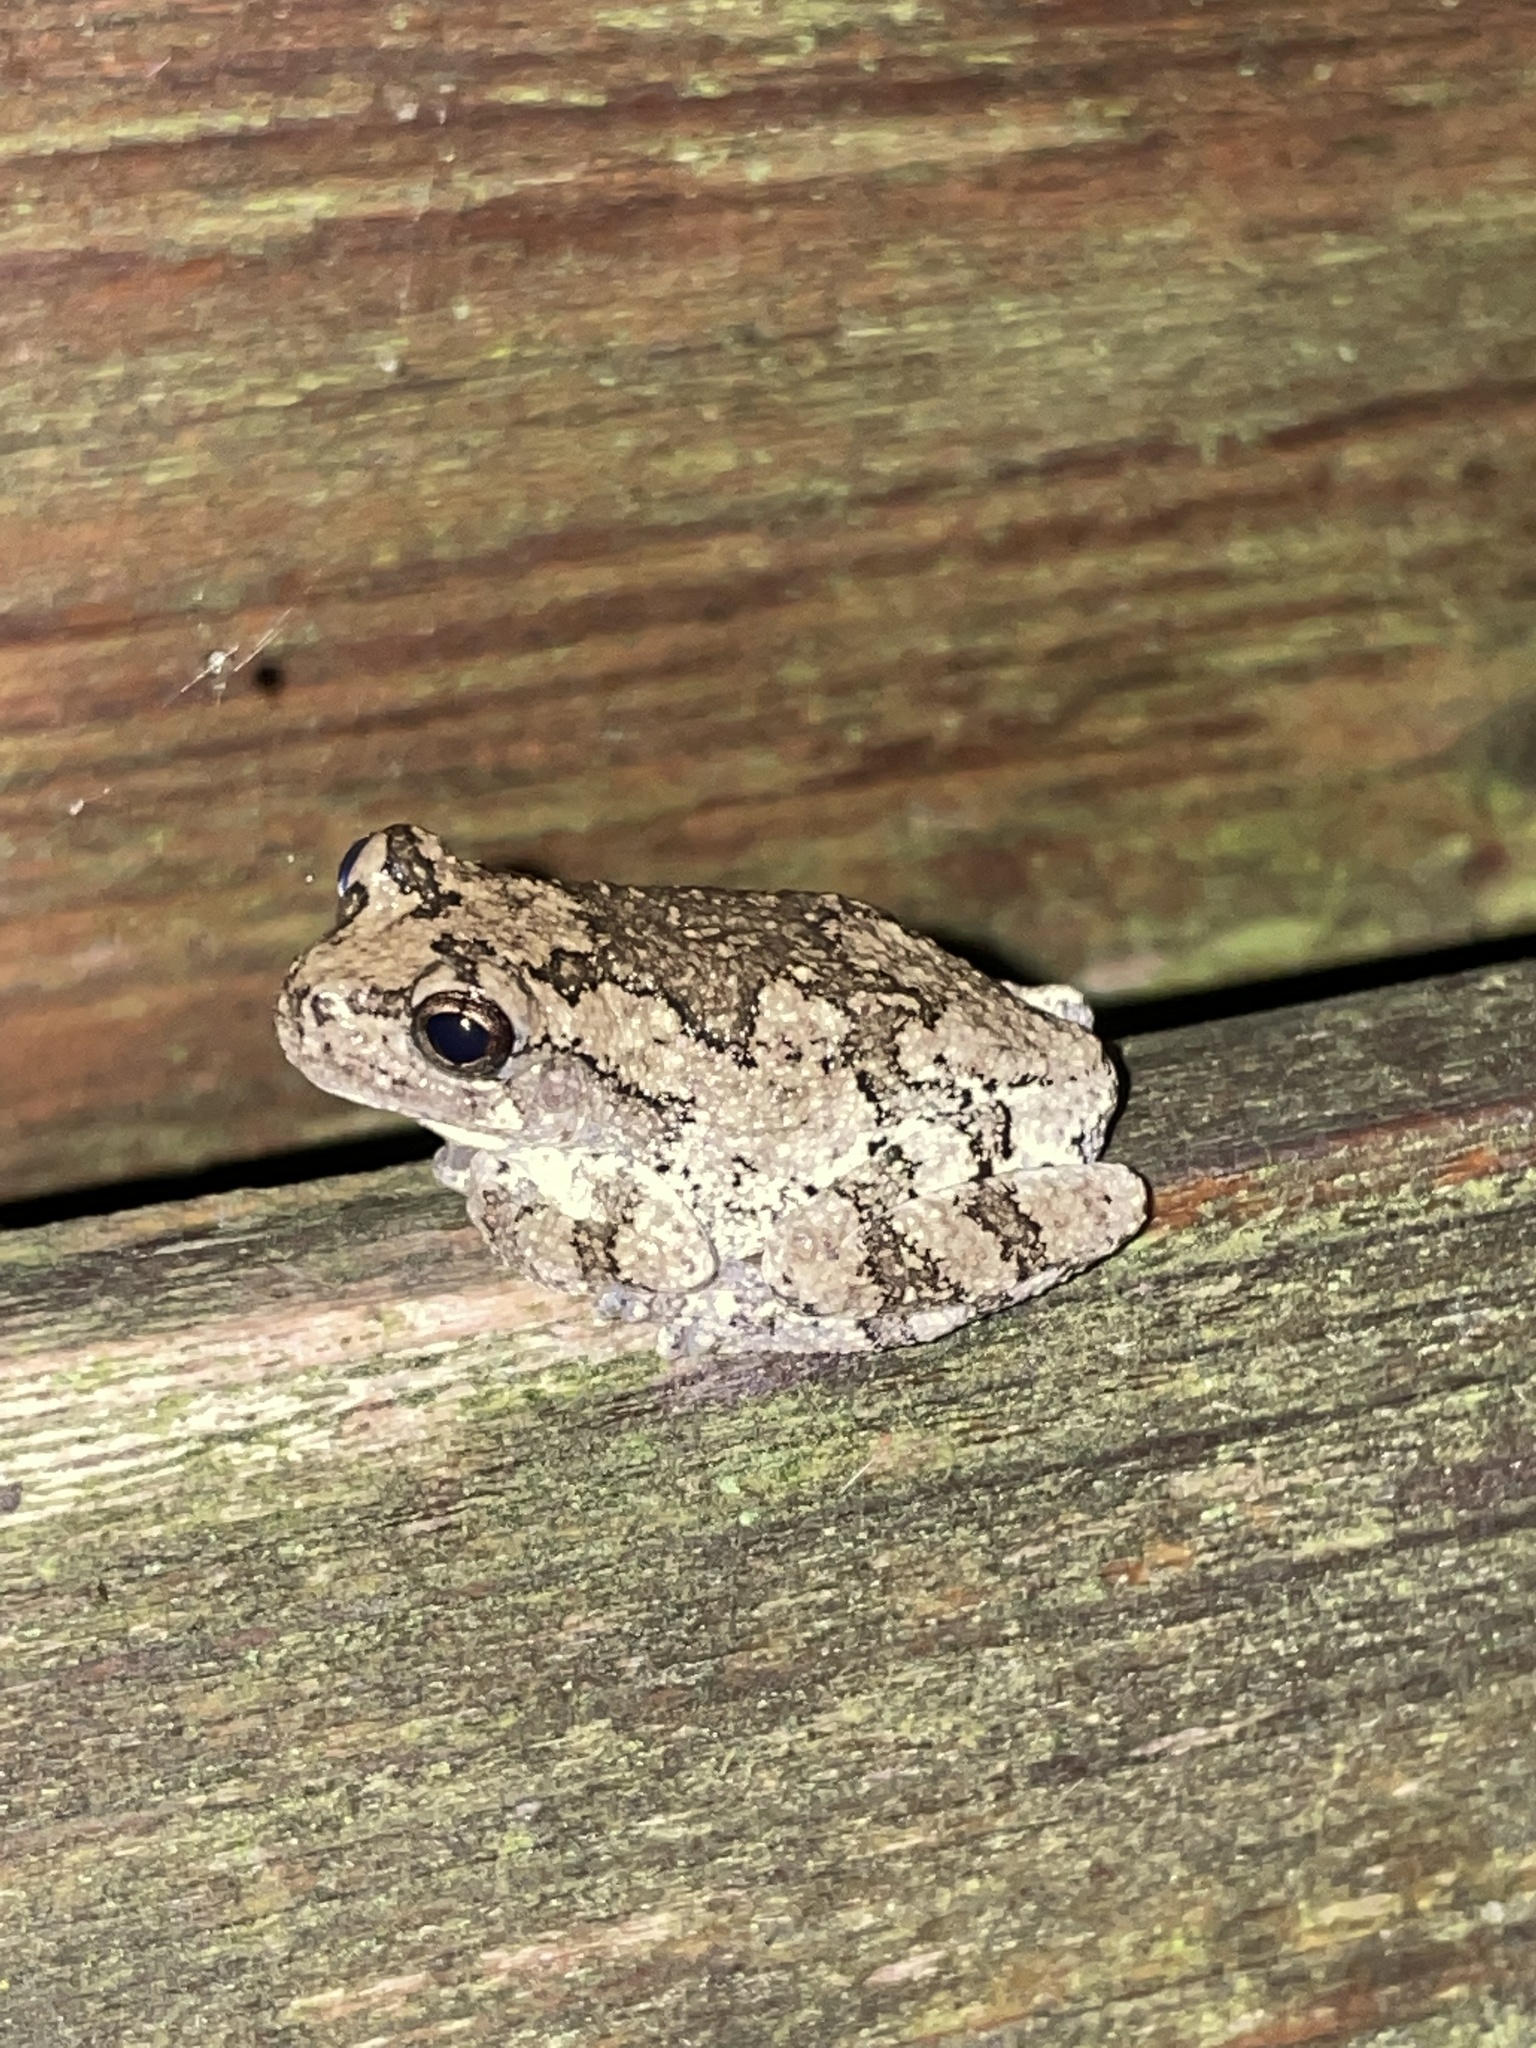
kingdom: Animalia
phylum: Chordata
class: Amphibia
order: Anura
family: Hylidae
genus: Hyla
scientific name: Hyla
